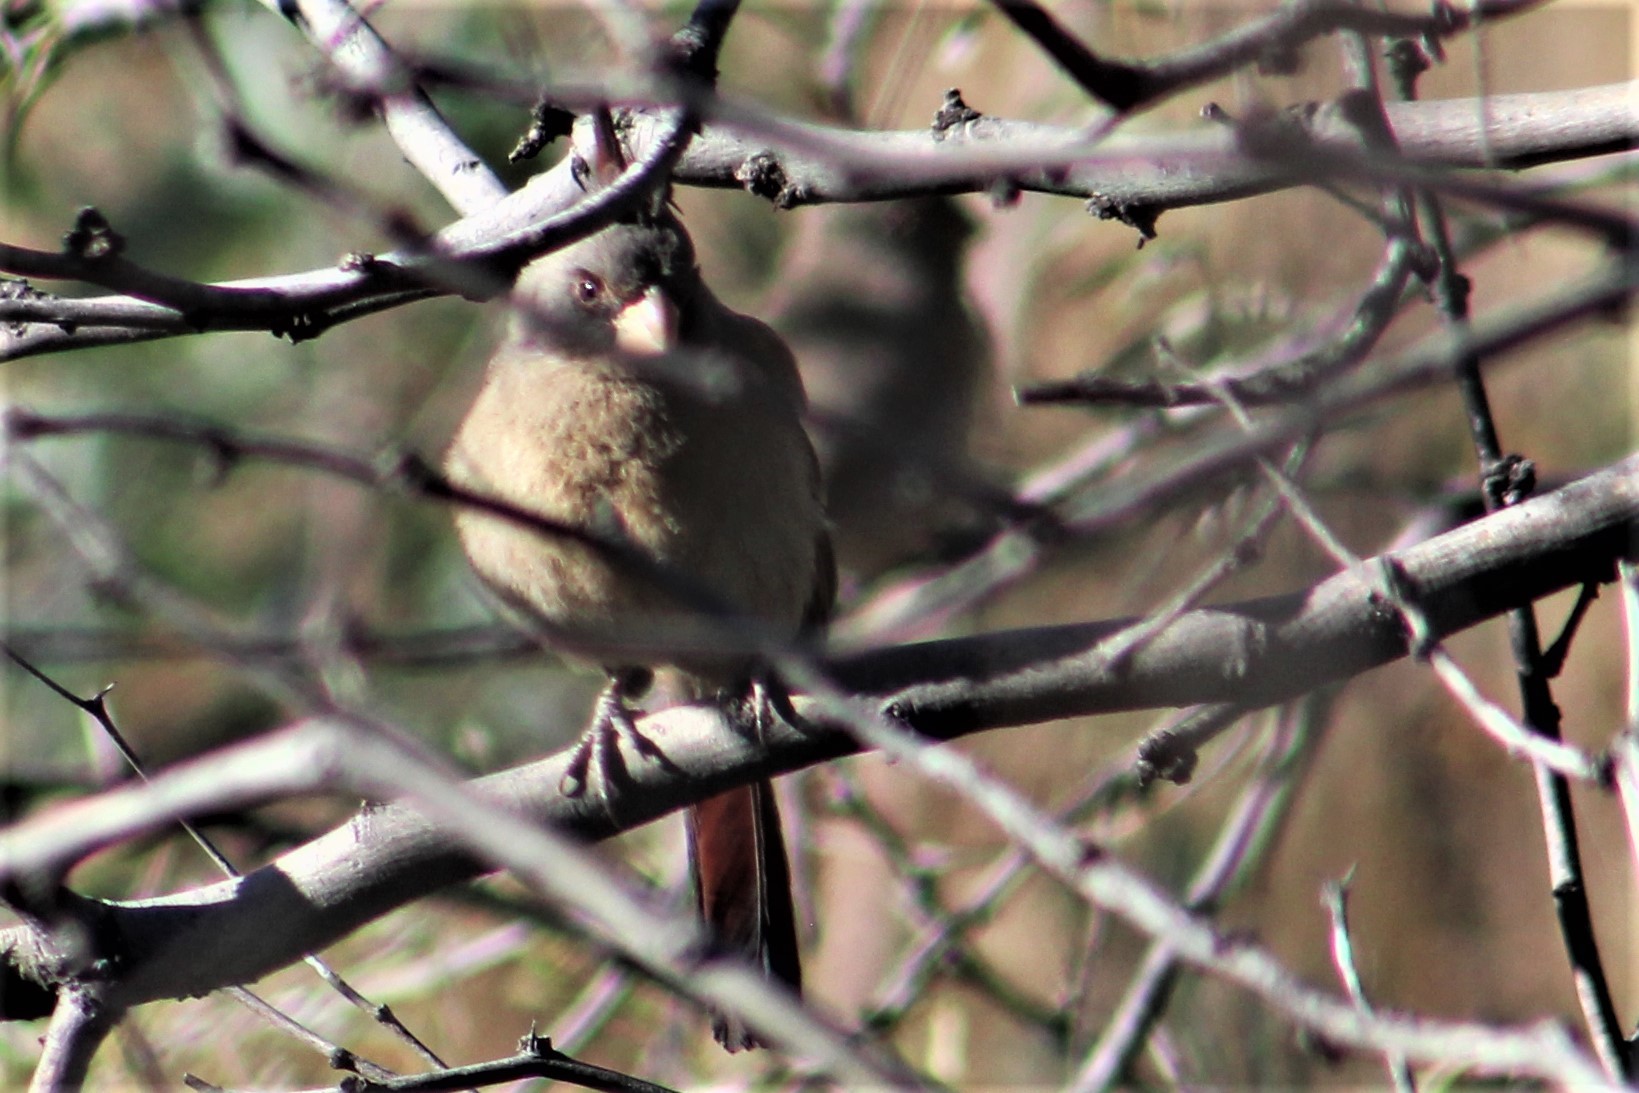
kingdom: Animalia
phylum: Chordata
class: Aves
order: Passeriformes
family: Cardinalidae
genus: Cardinalis
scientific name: Cardinalis sinuatus
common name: Pyrrhuloxia
